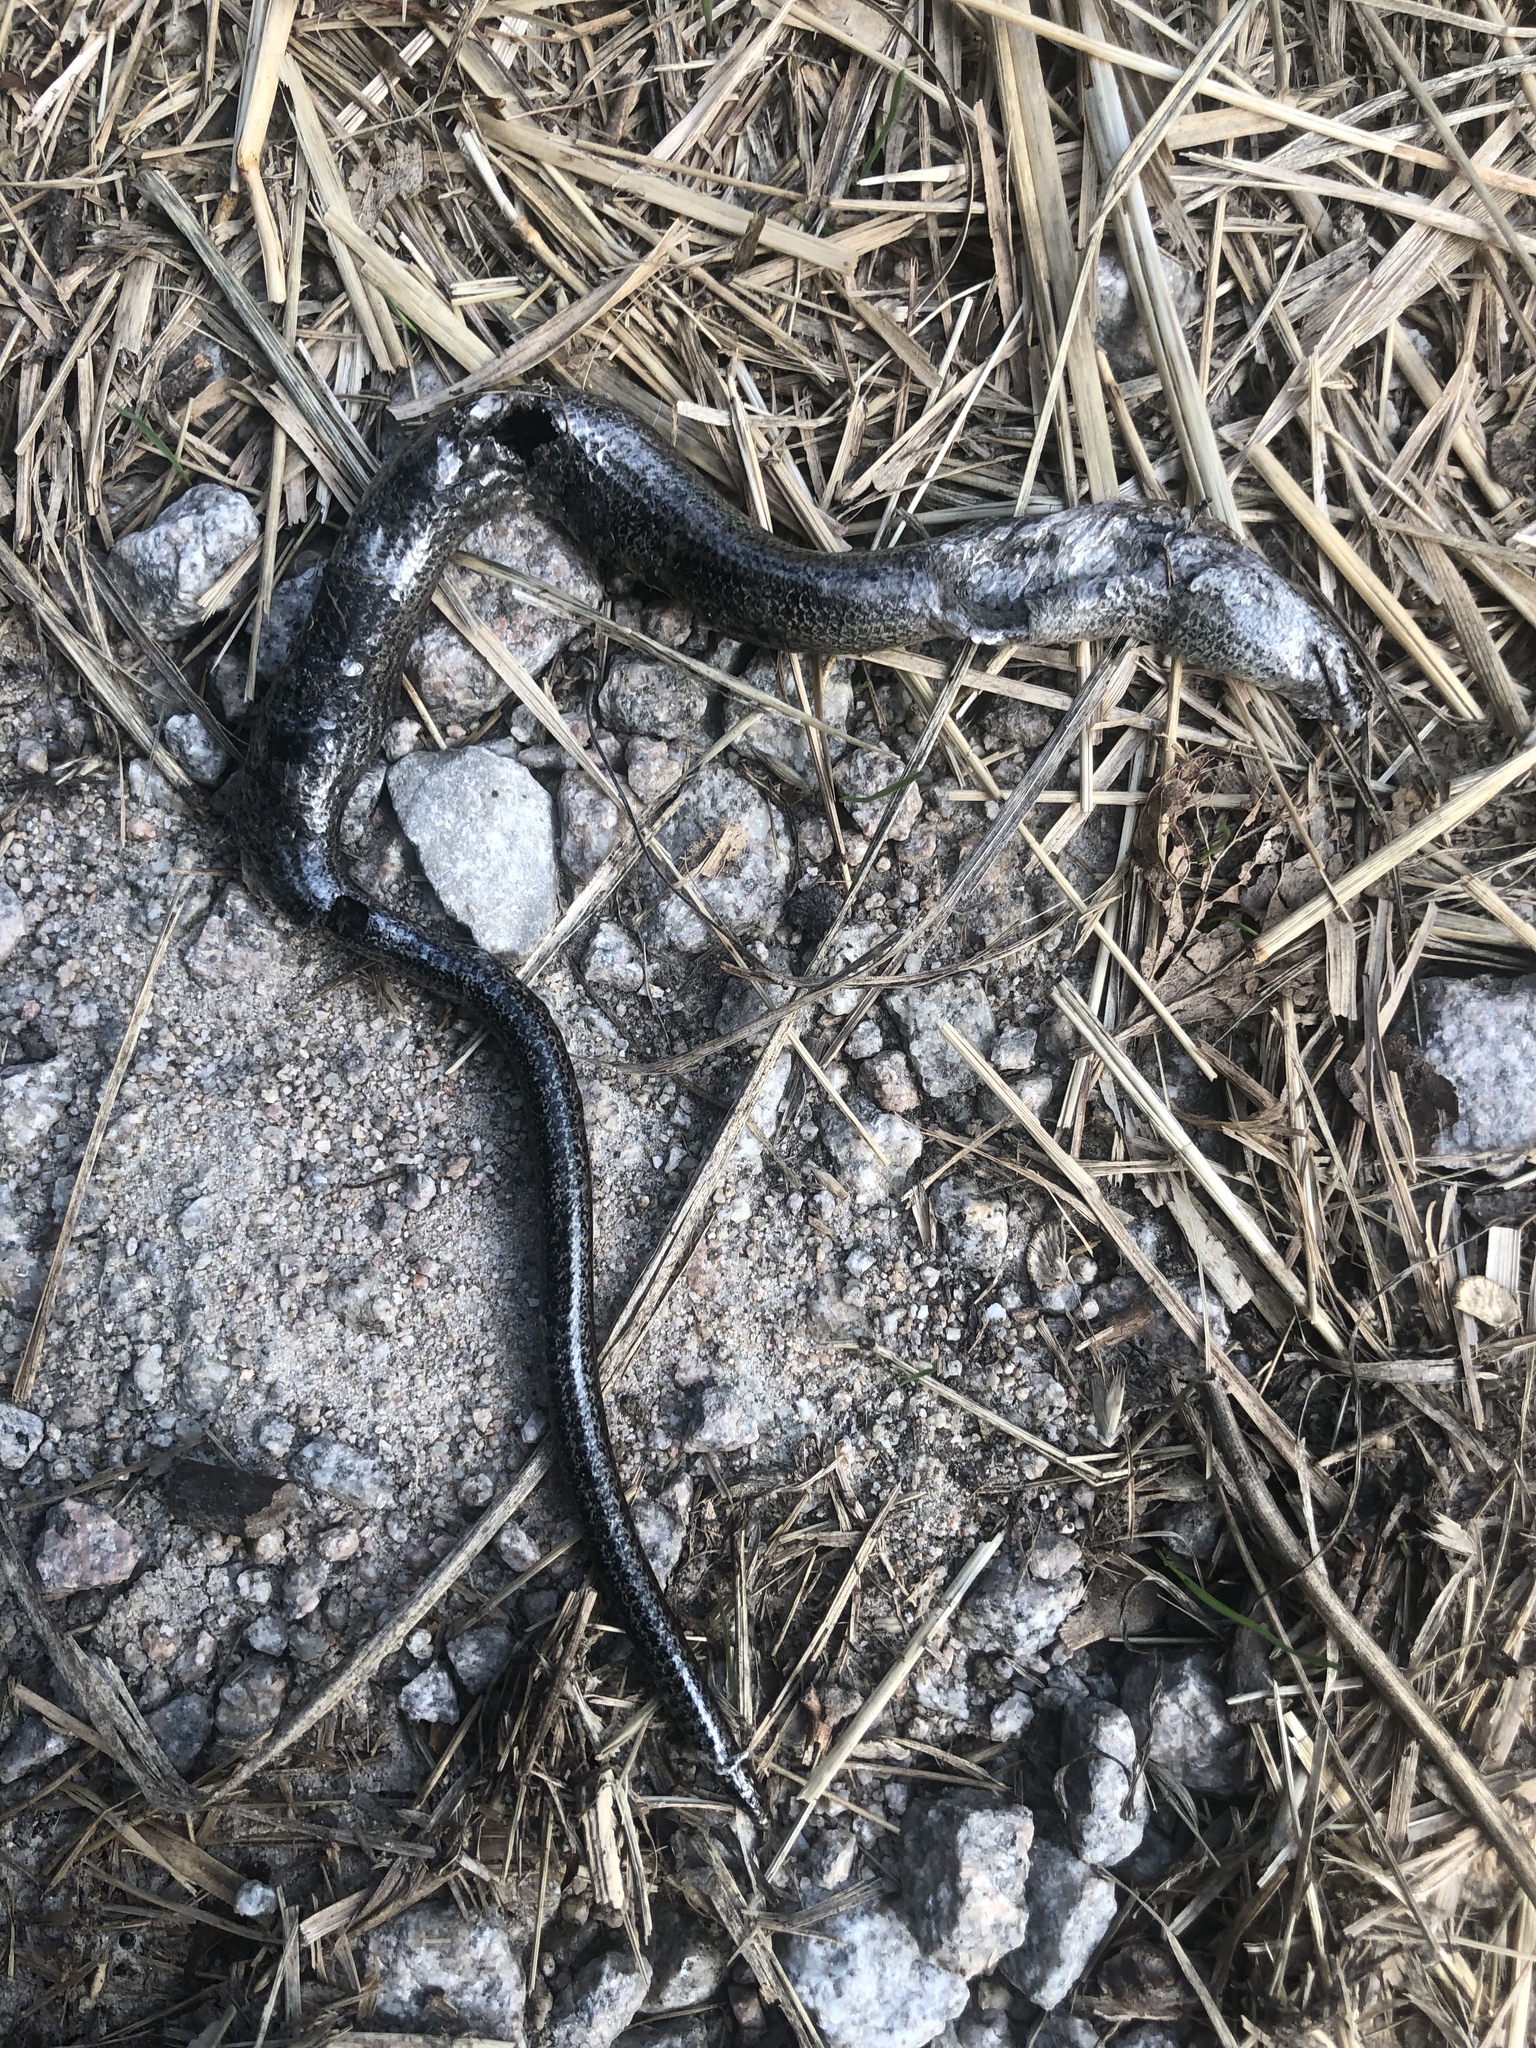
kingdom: Animalia
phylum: Chordata
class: Squamata
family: Anguidae
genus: Anguis
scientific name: Anguis fragilis
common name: Slow worm
